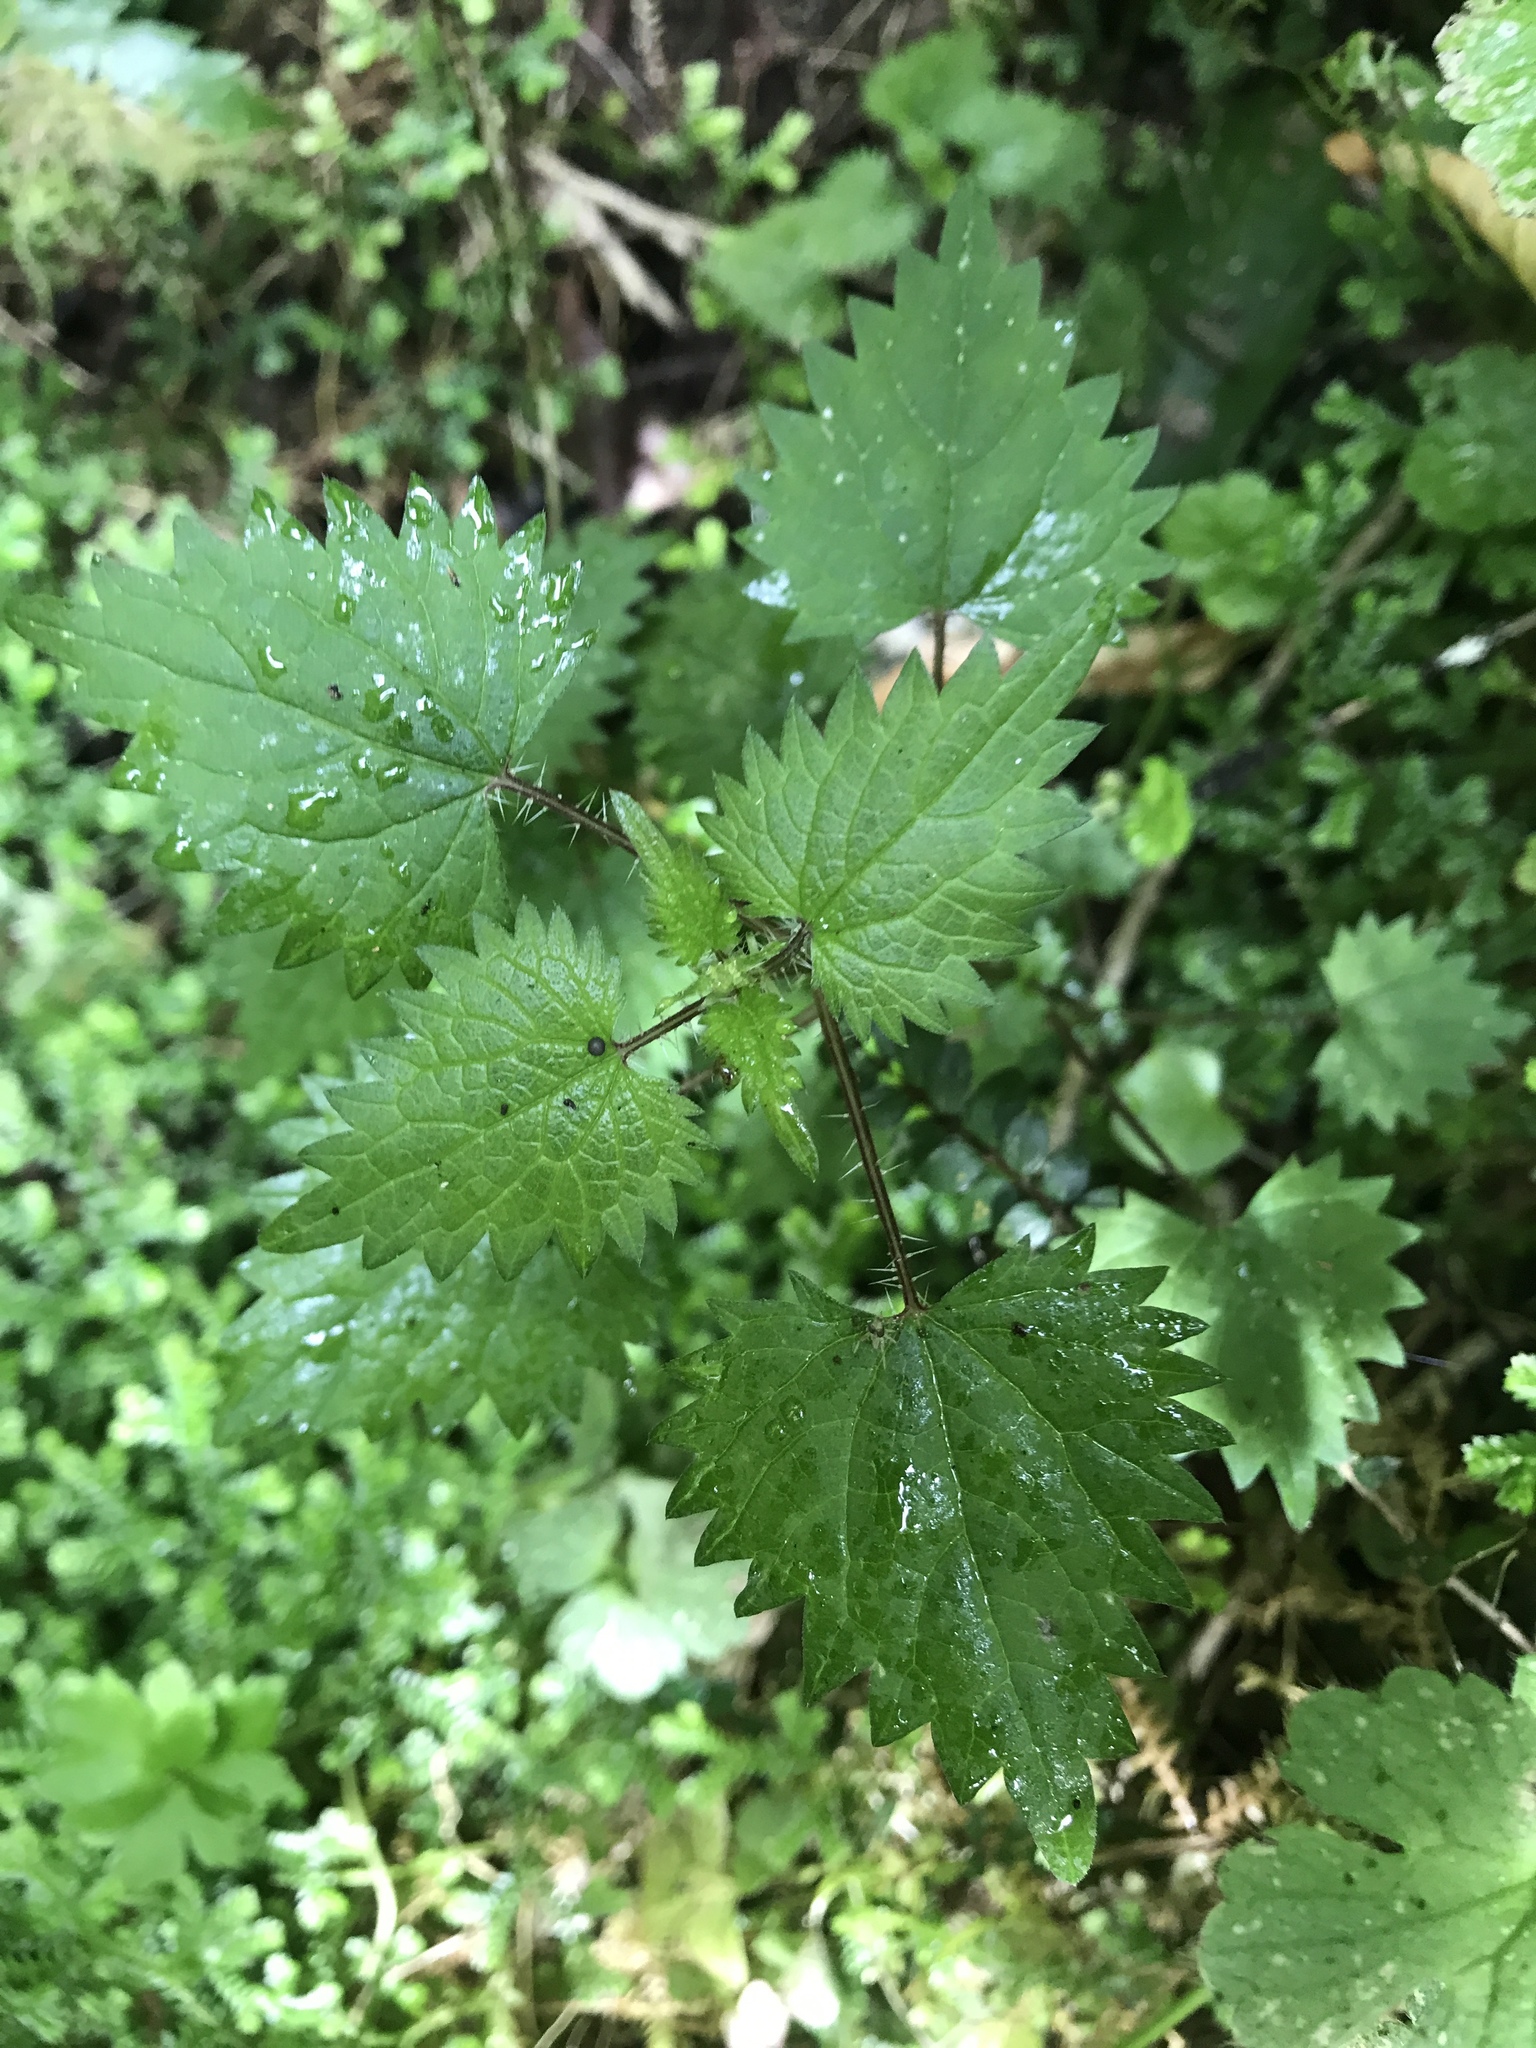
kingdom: Plantae
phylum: Tracheophyta
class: Magnoliopsida
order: Rosales
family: Urticaceae
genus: Urtica
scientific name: Urtica sykesii
